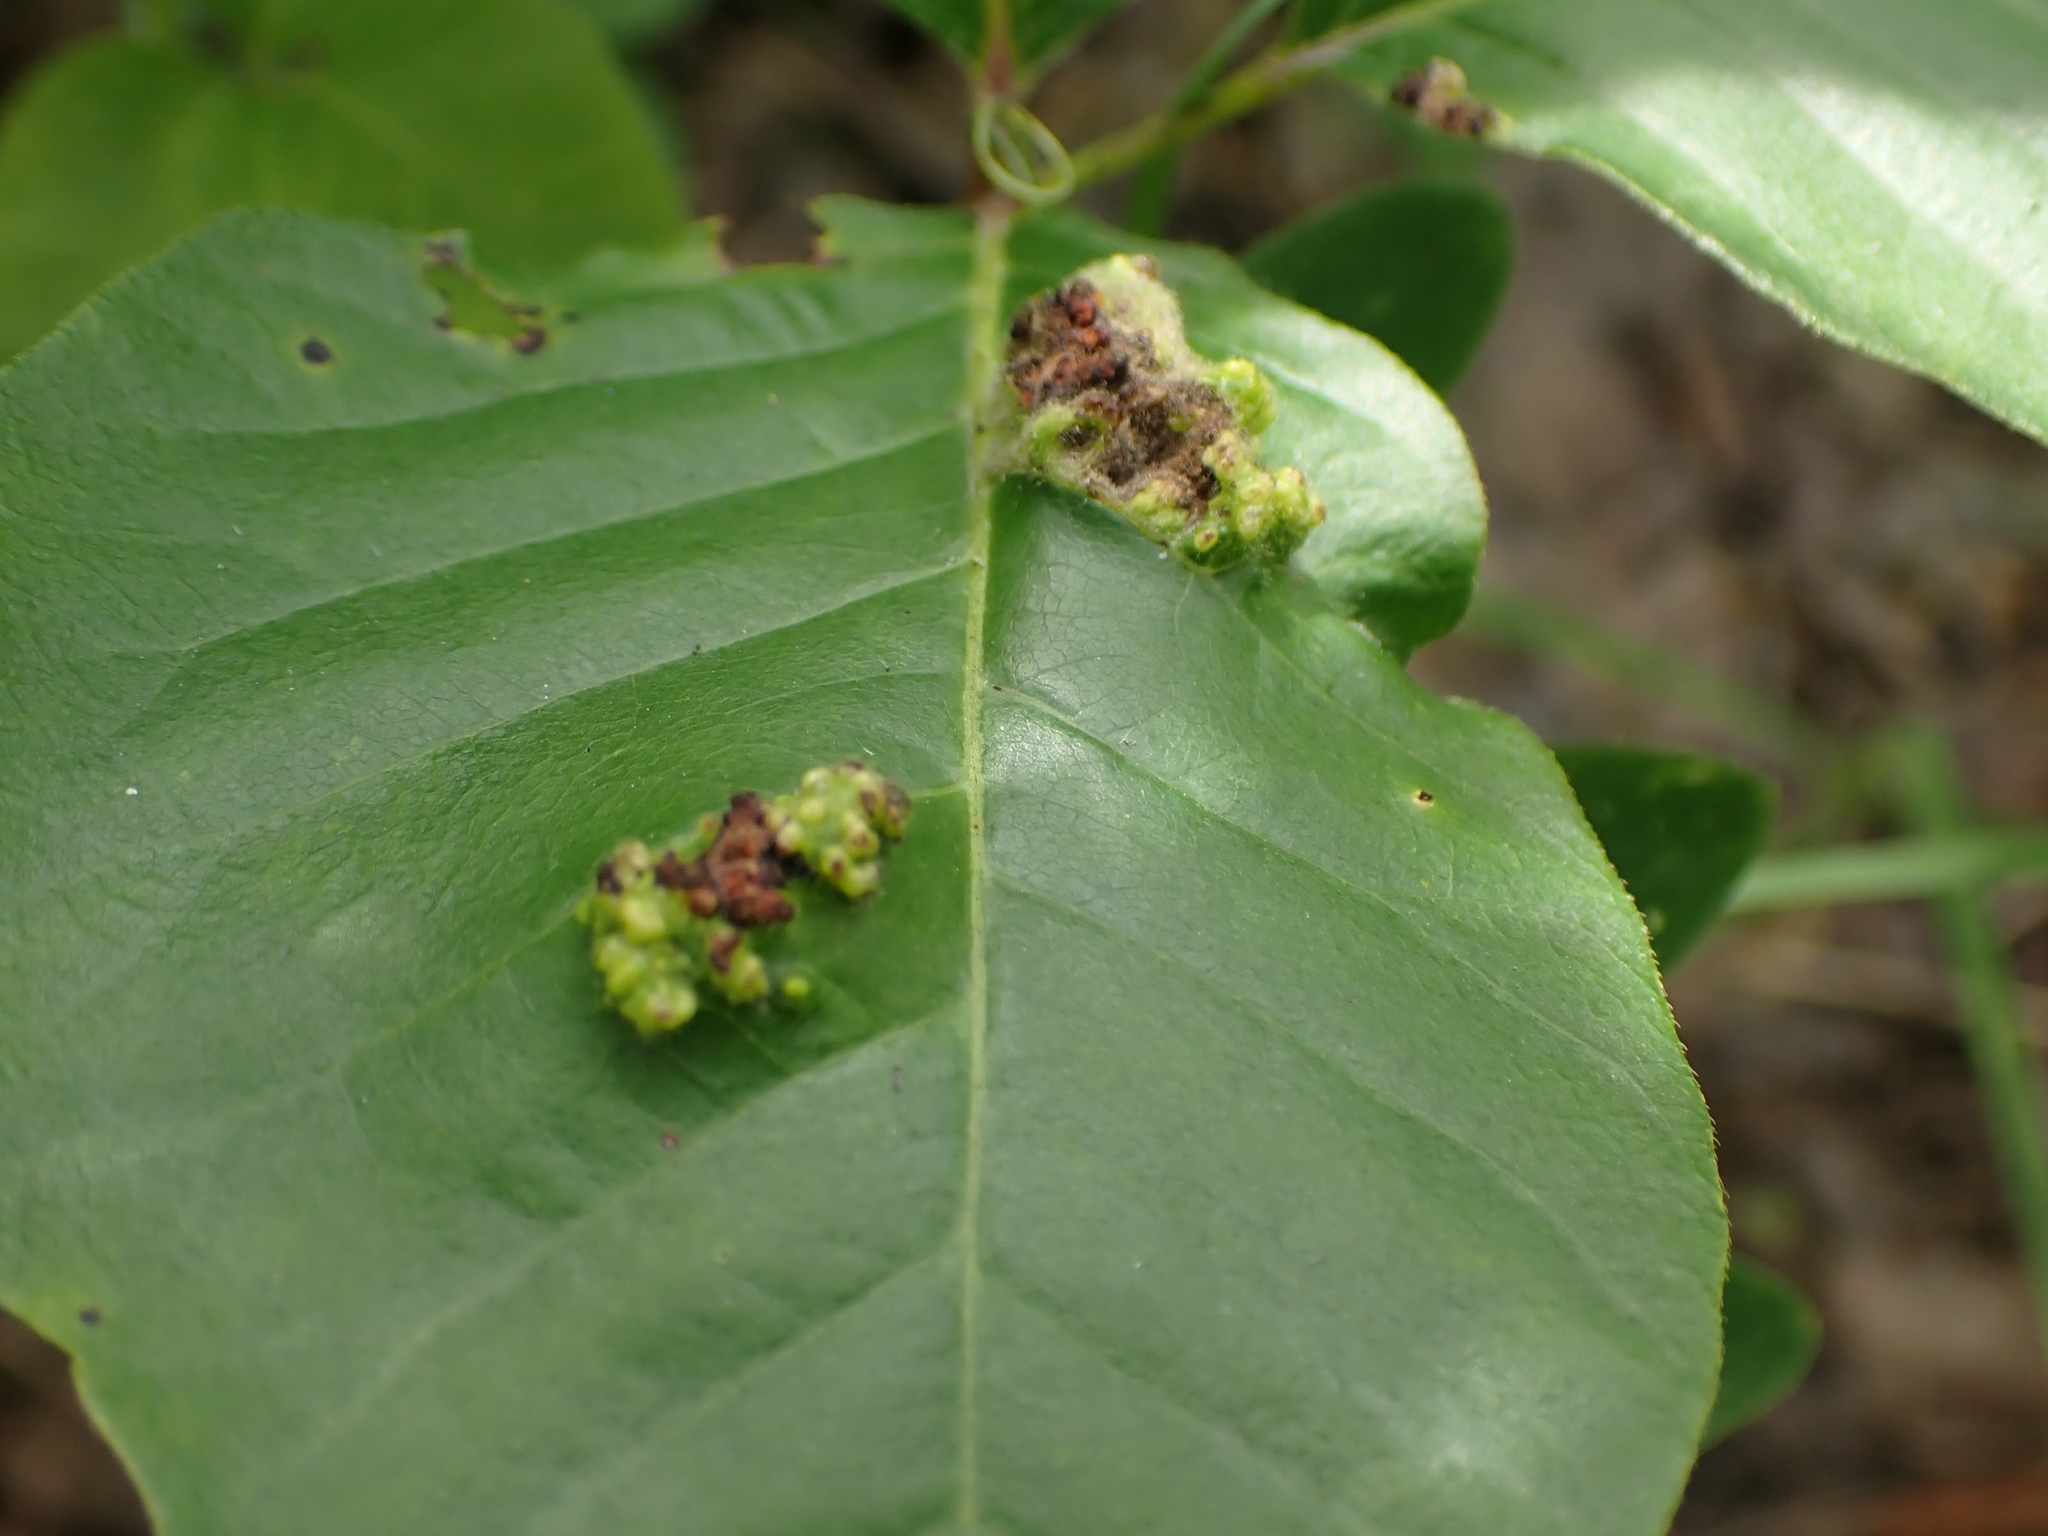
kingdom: Animalia
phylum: Arthropoda
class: Arachnida
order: Trombidiformes
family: Eriophyidae
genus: Aculops
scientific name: Aculops
